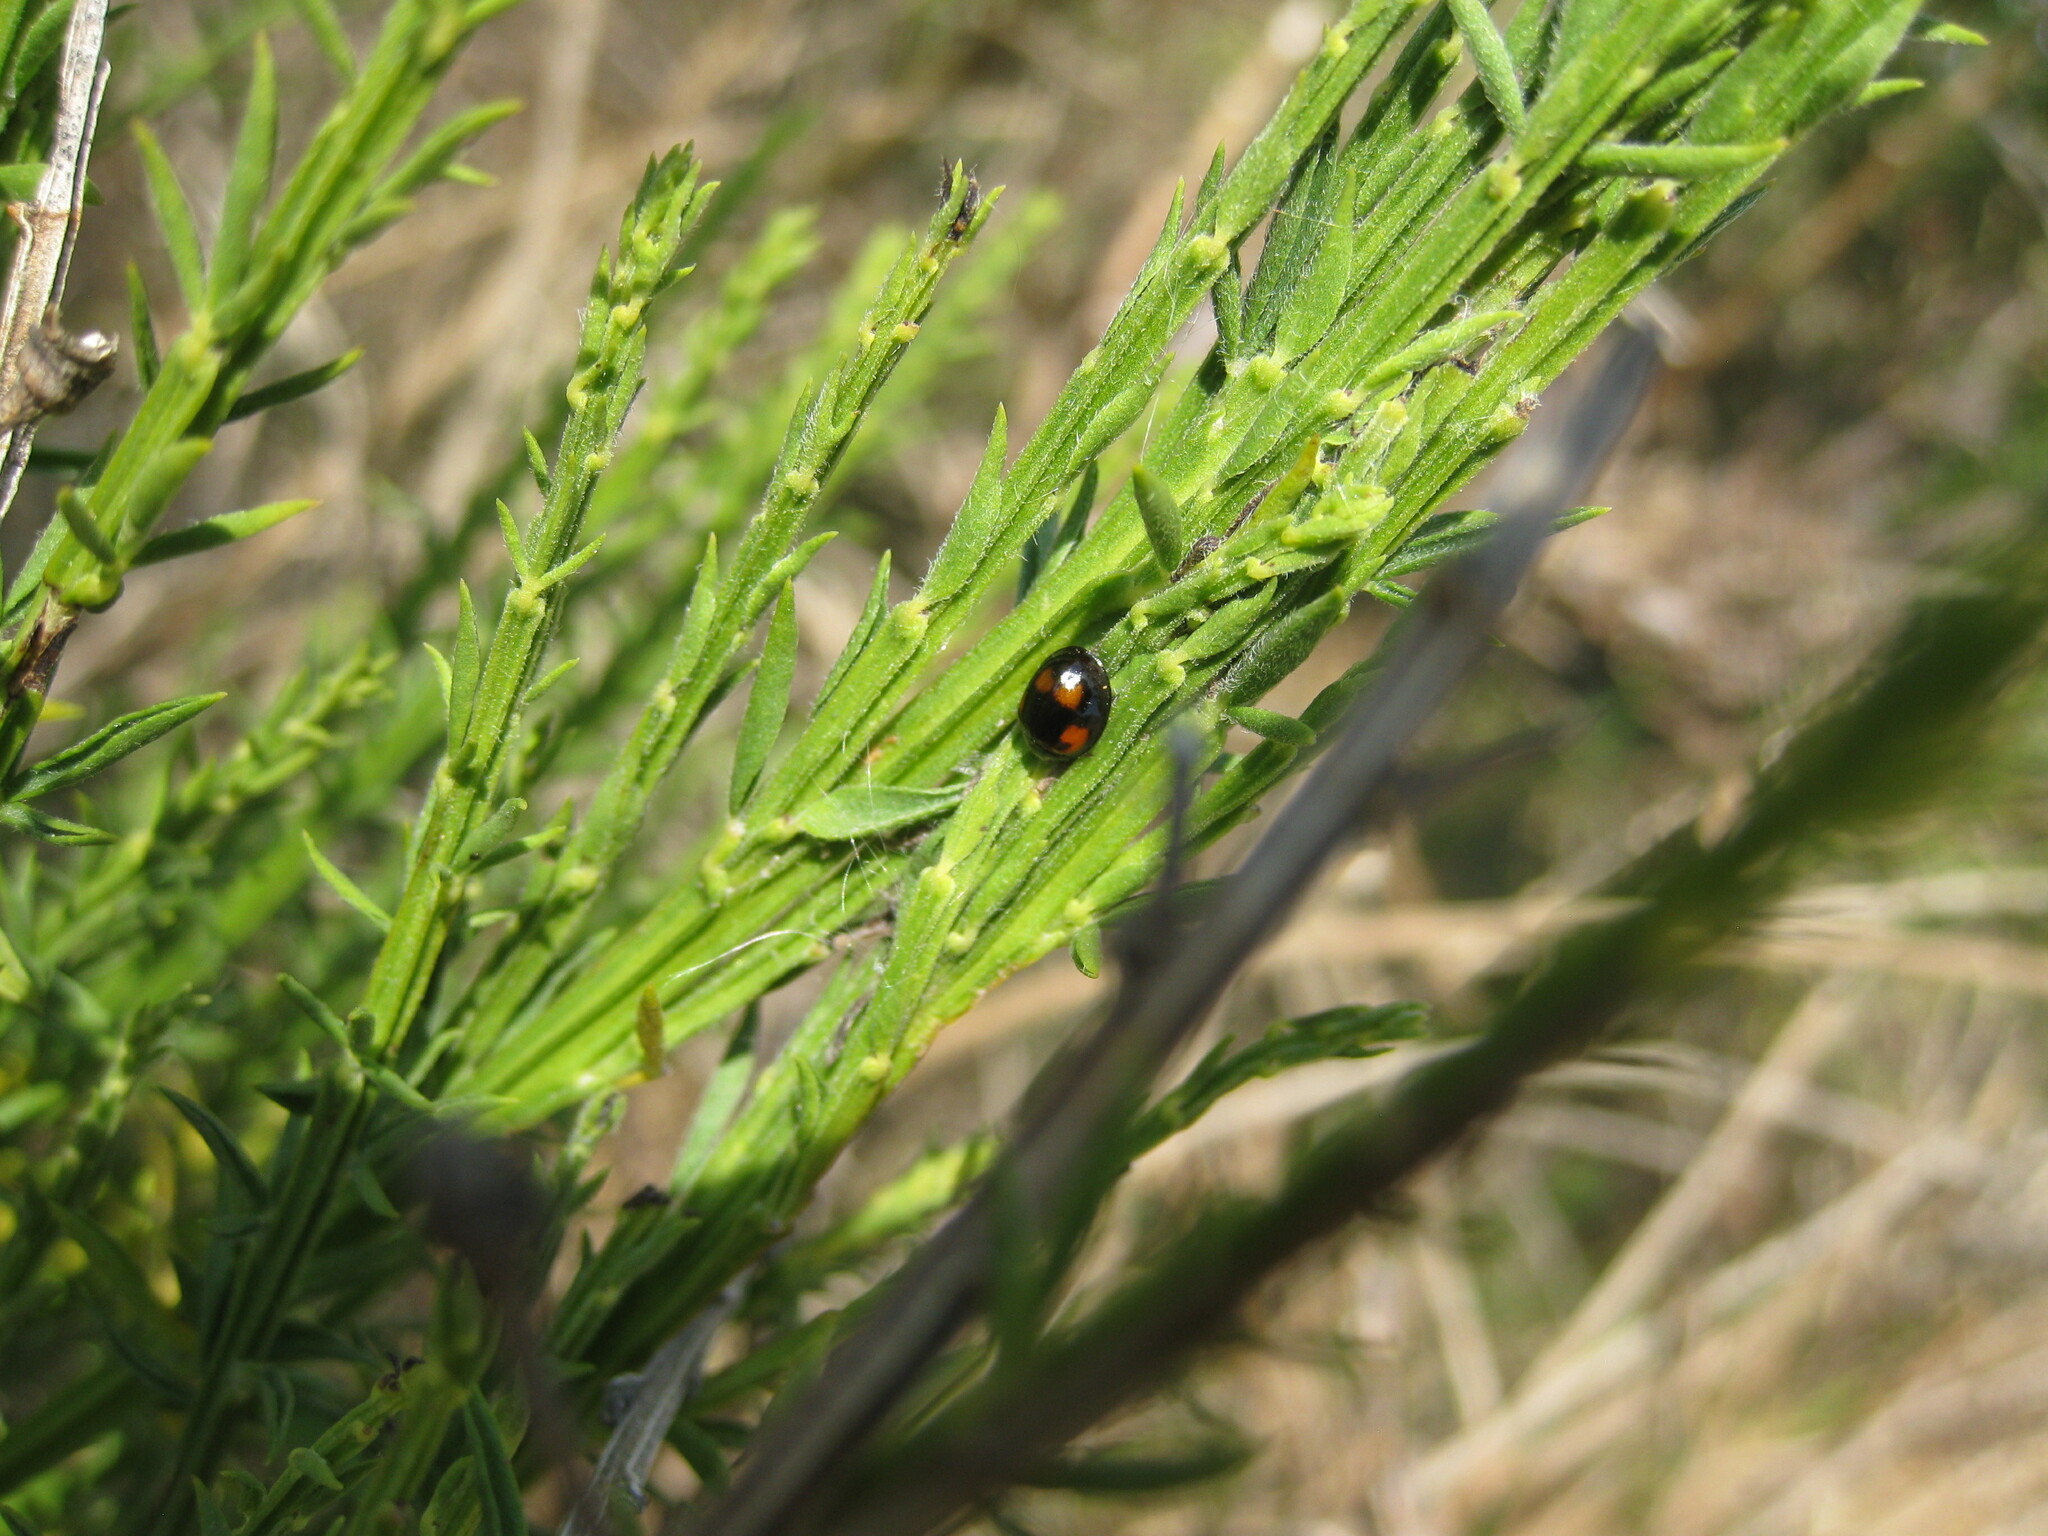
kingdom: Animalia
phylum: Arthropoda
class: Insecta
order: Coleoptera
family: Coccinellidae
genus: Brumus
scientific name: Brumus quadripustulatus
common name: Ladybird beetle
